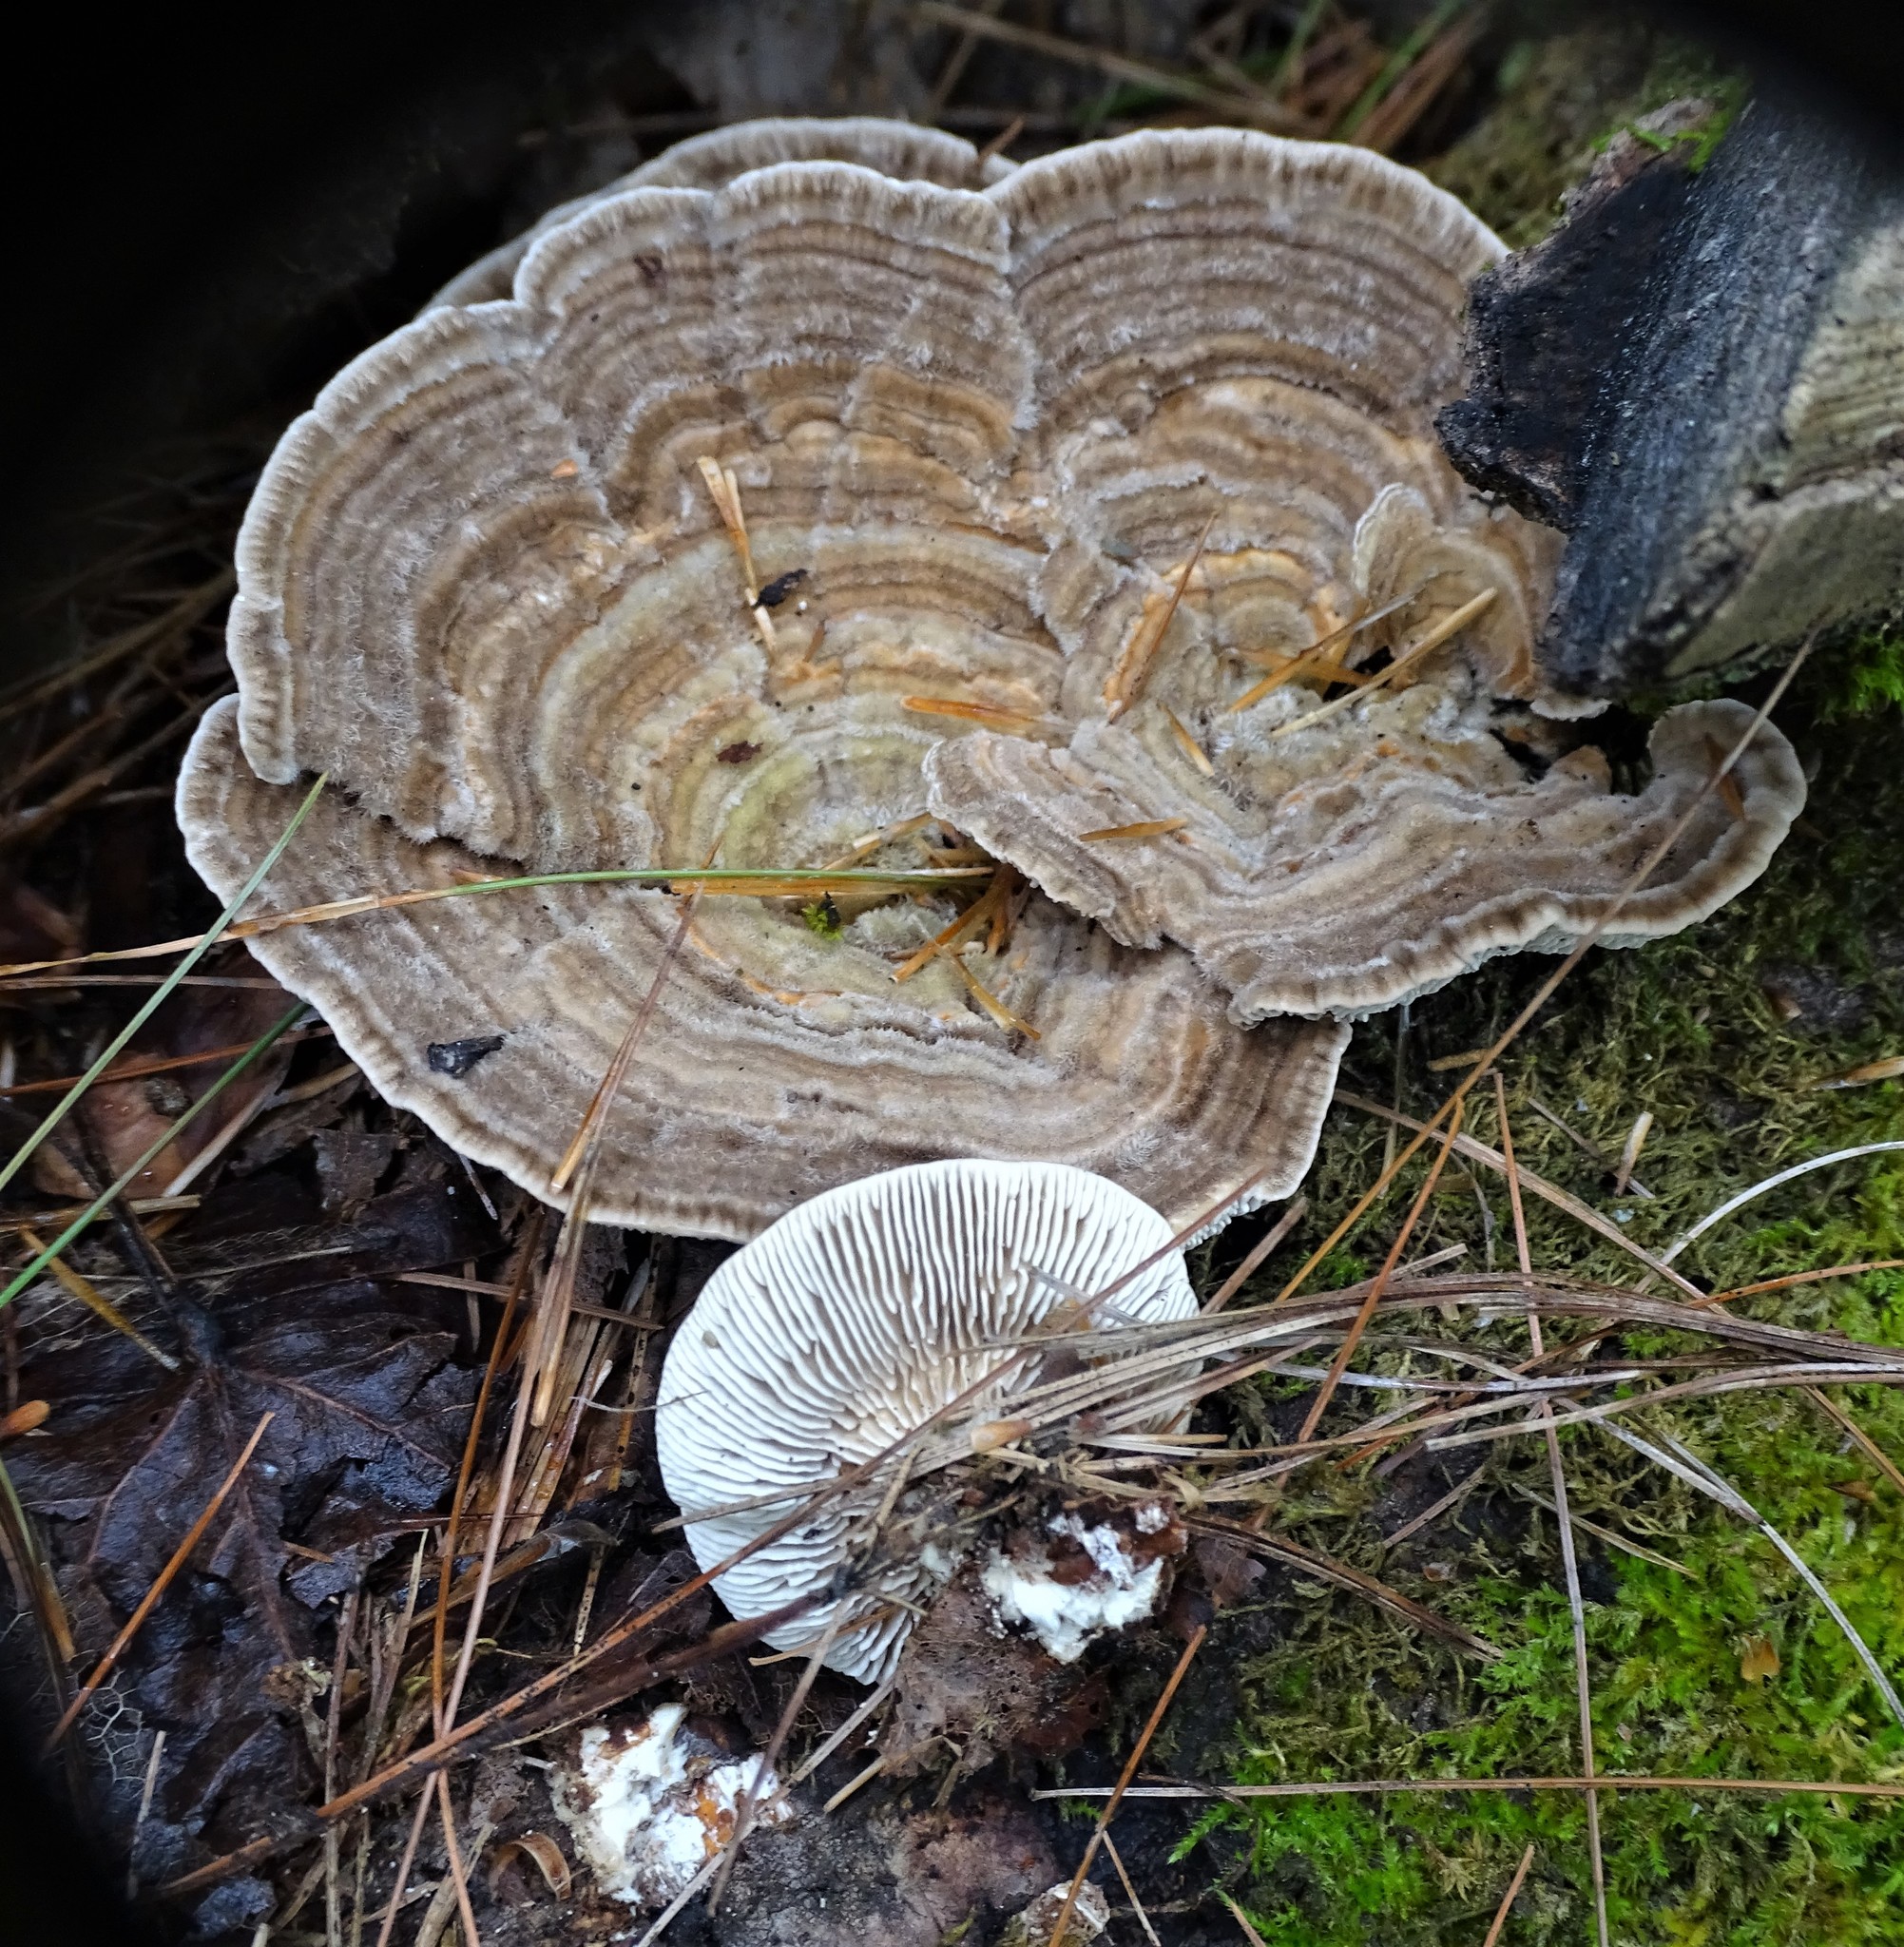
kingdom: Fungi
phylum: Basidiomycota
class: Agaricomycetes
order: Polyporales
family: Polyporaceae
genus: Lenzites
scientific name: Lenzites betulinus
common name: Birch mazegill
